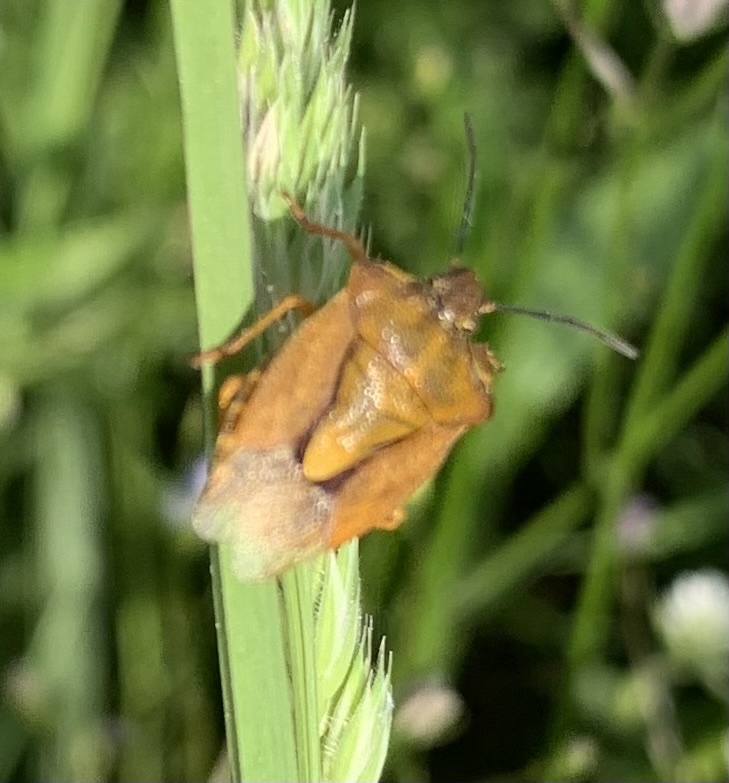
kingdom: Animalia
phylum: Arthropoda
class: Insecta
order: Hemiptera
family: Pentatomidae
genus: Carpocoris
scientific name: Carpocoris purpureipennis
